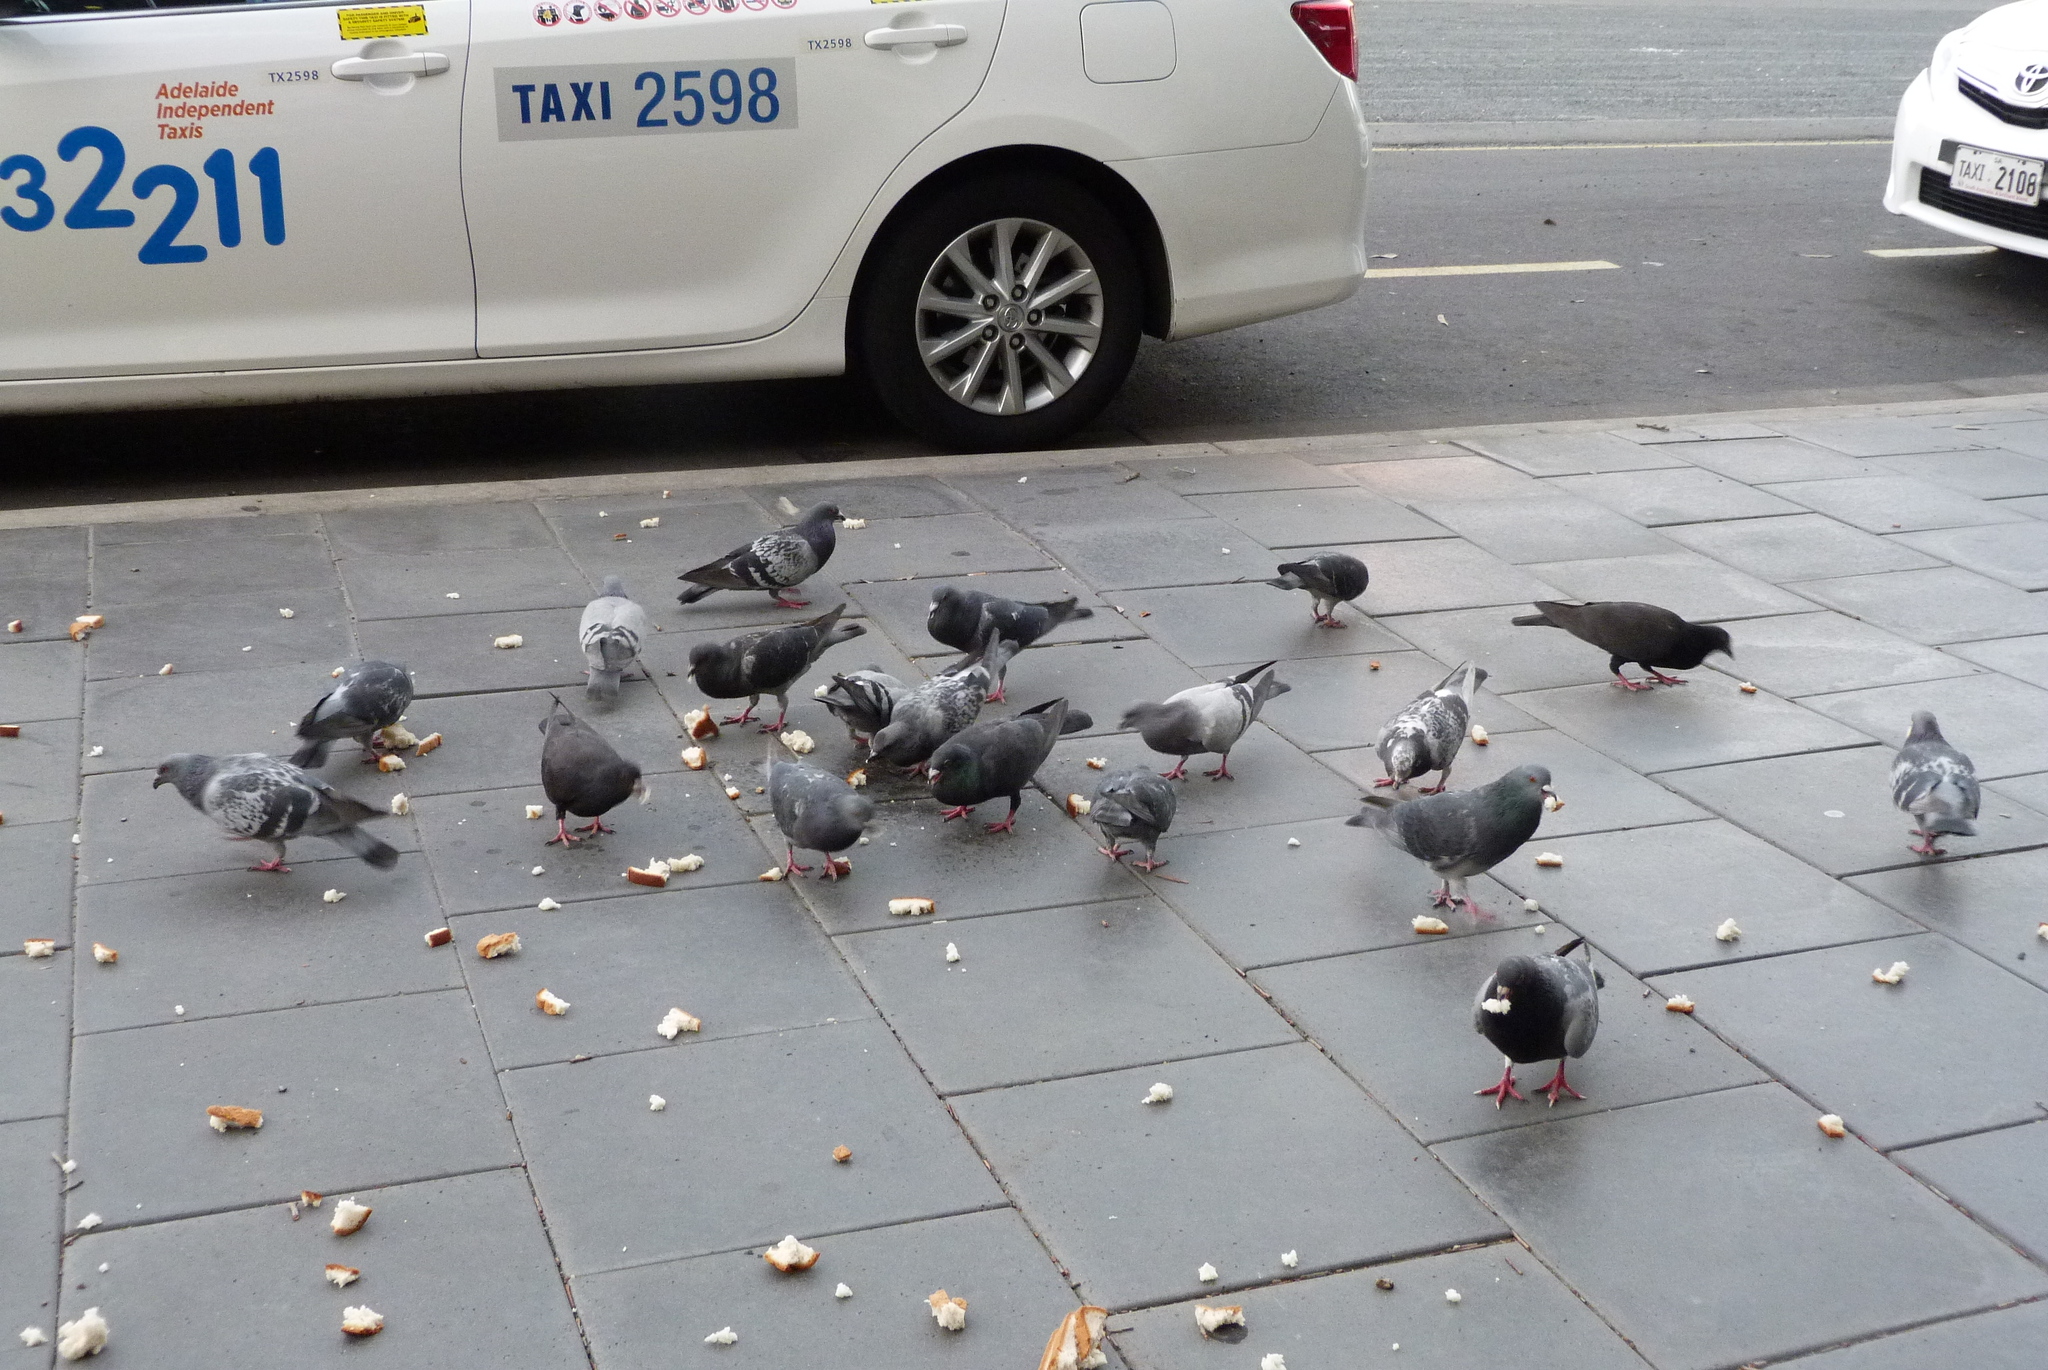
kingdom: Animalia
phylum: Chordata
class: Aves
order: Columbiformes
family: Columbidae
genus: Columba
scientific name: Columba livia
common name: Rock pigeon
